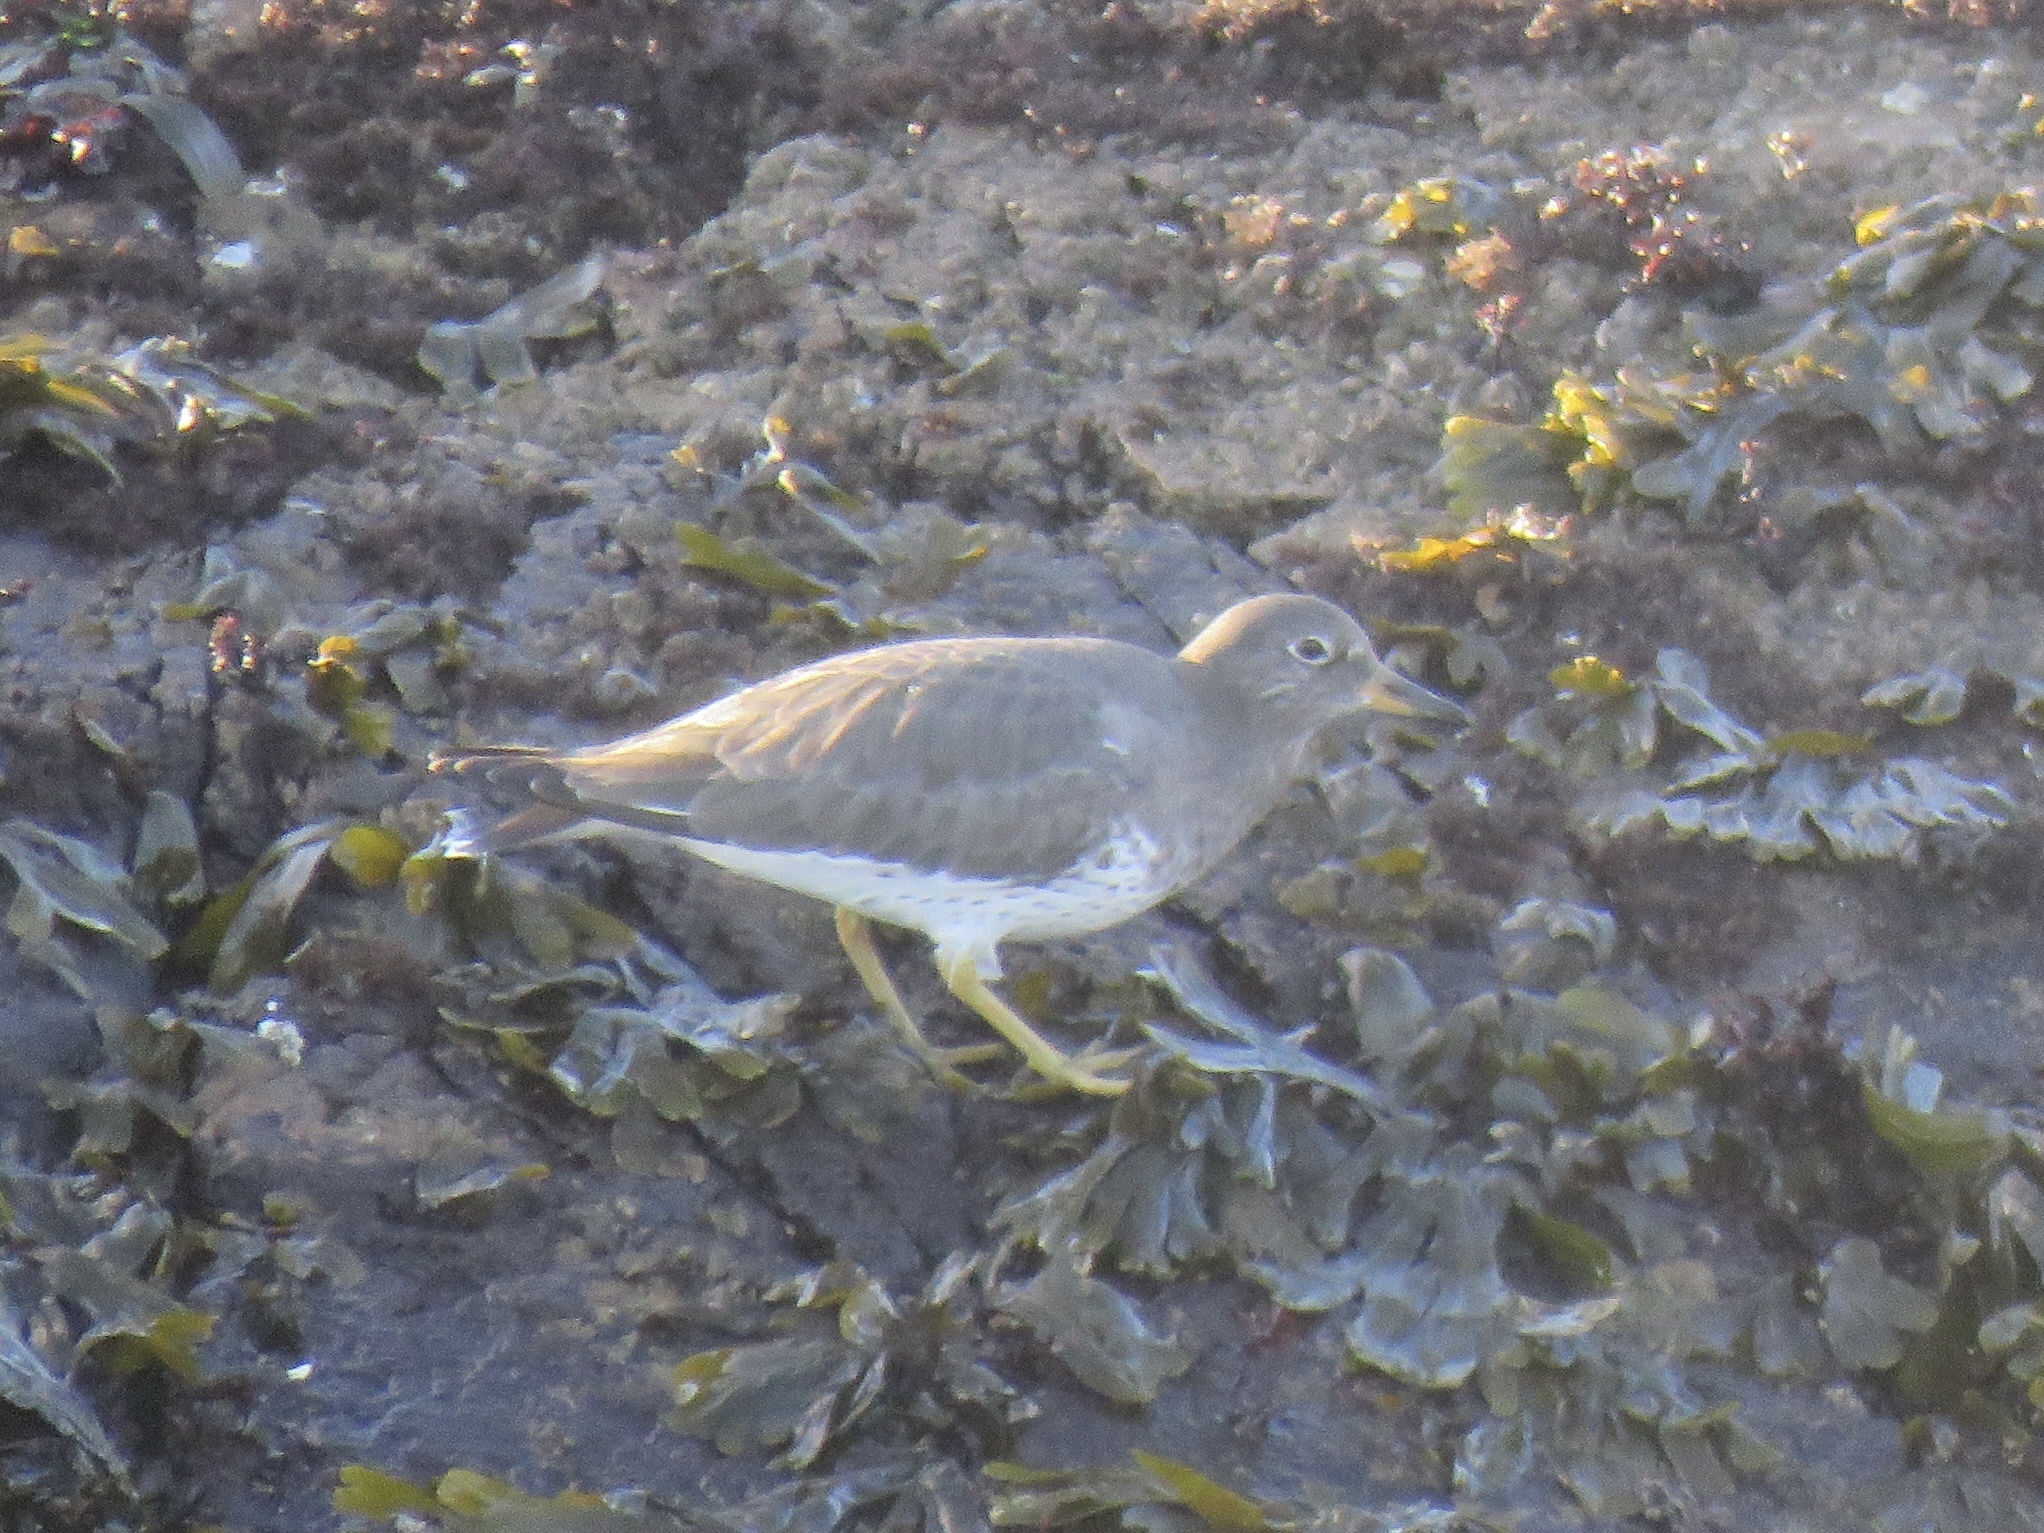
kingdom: Animalia
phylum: Chordata
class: Aves
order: Charadriiformes
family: Scolopacidae
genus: Calidris
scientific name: Calidris virgata
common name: Surfbird
